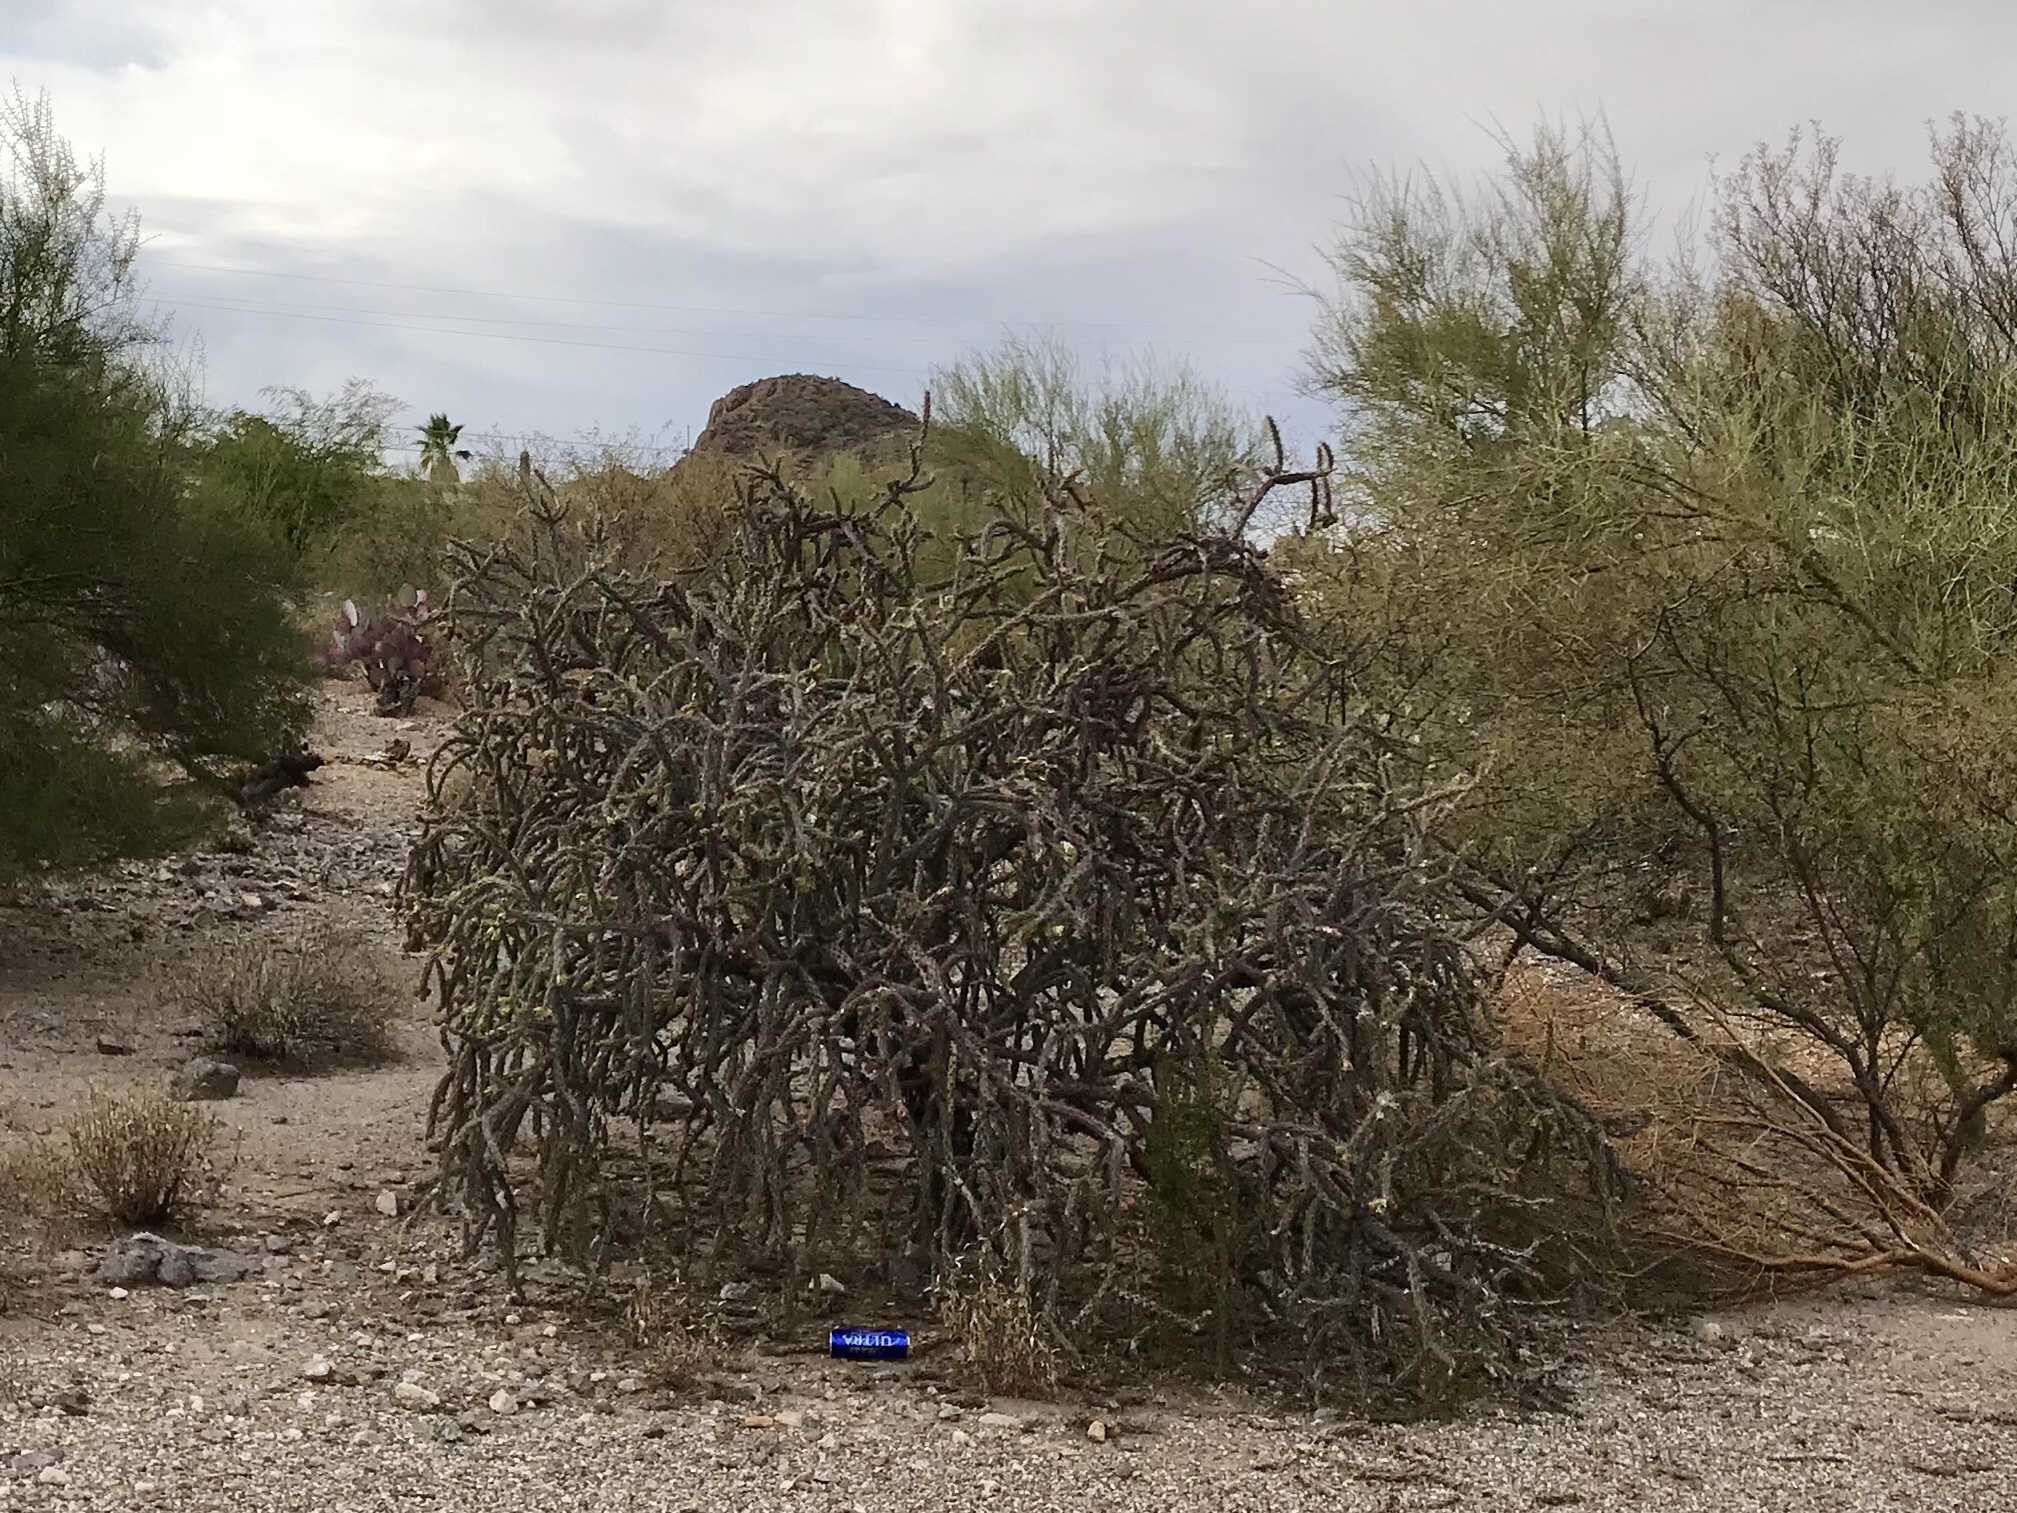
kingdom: Plantae
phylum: Tracheophyta
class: Magnoliopsida
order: Caryophyllales
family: Cactaceae
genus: Cylindropuntia
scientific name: Cylindropuntia imbricata
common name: Candelabrum cactus
